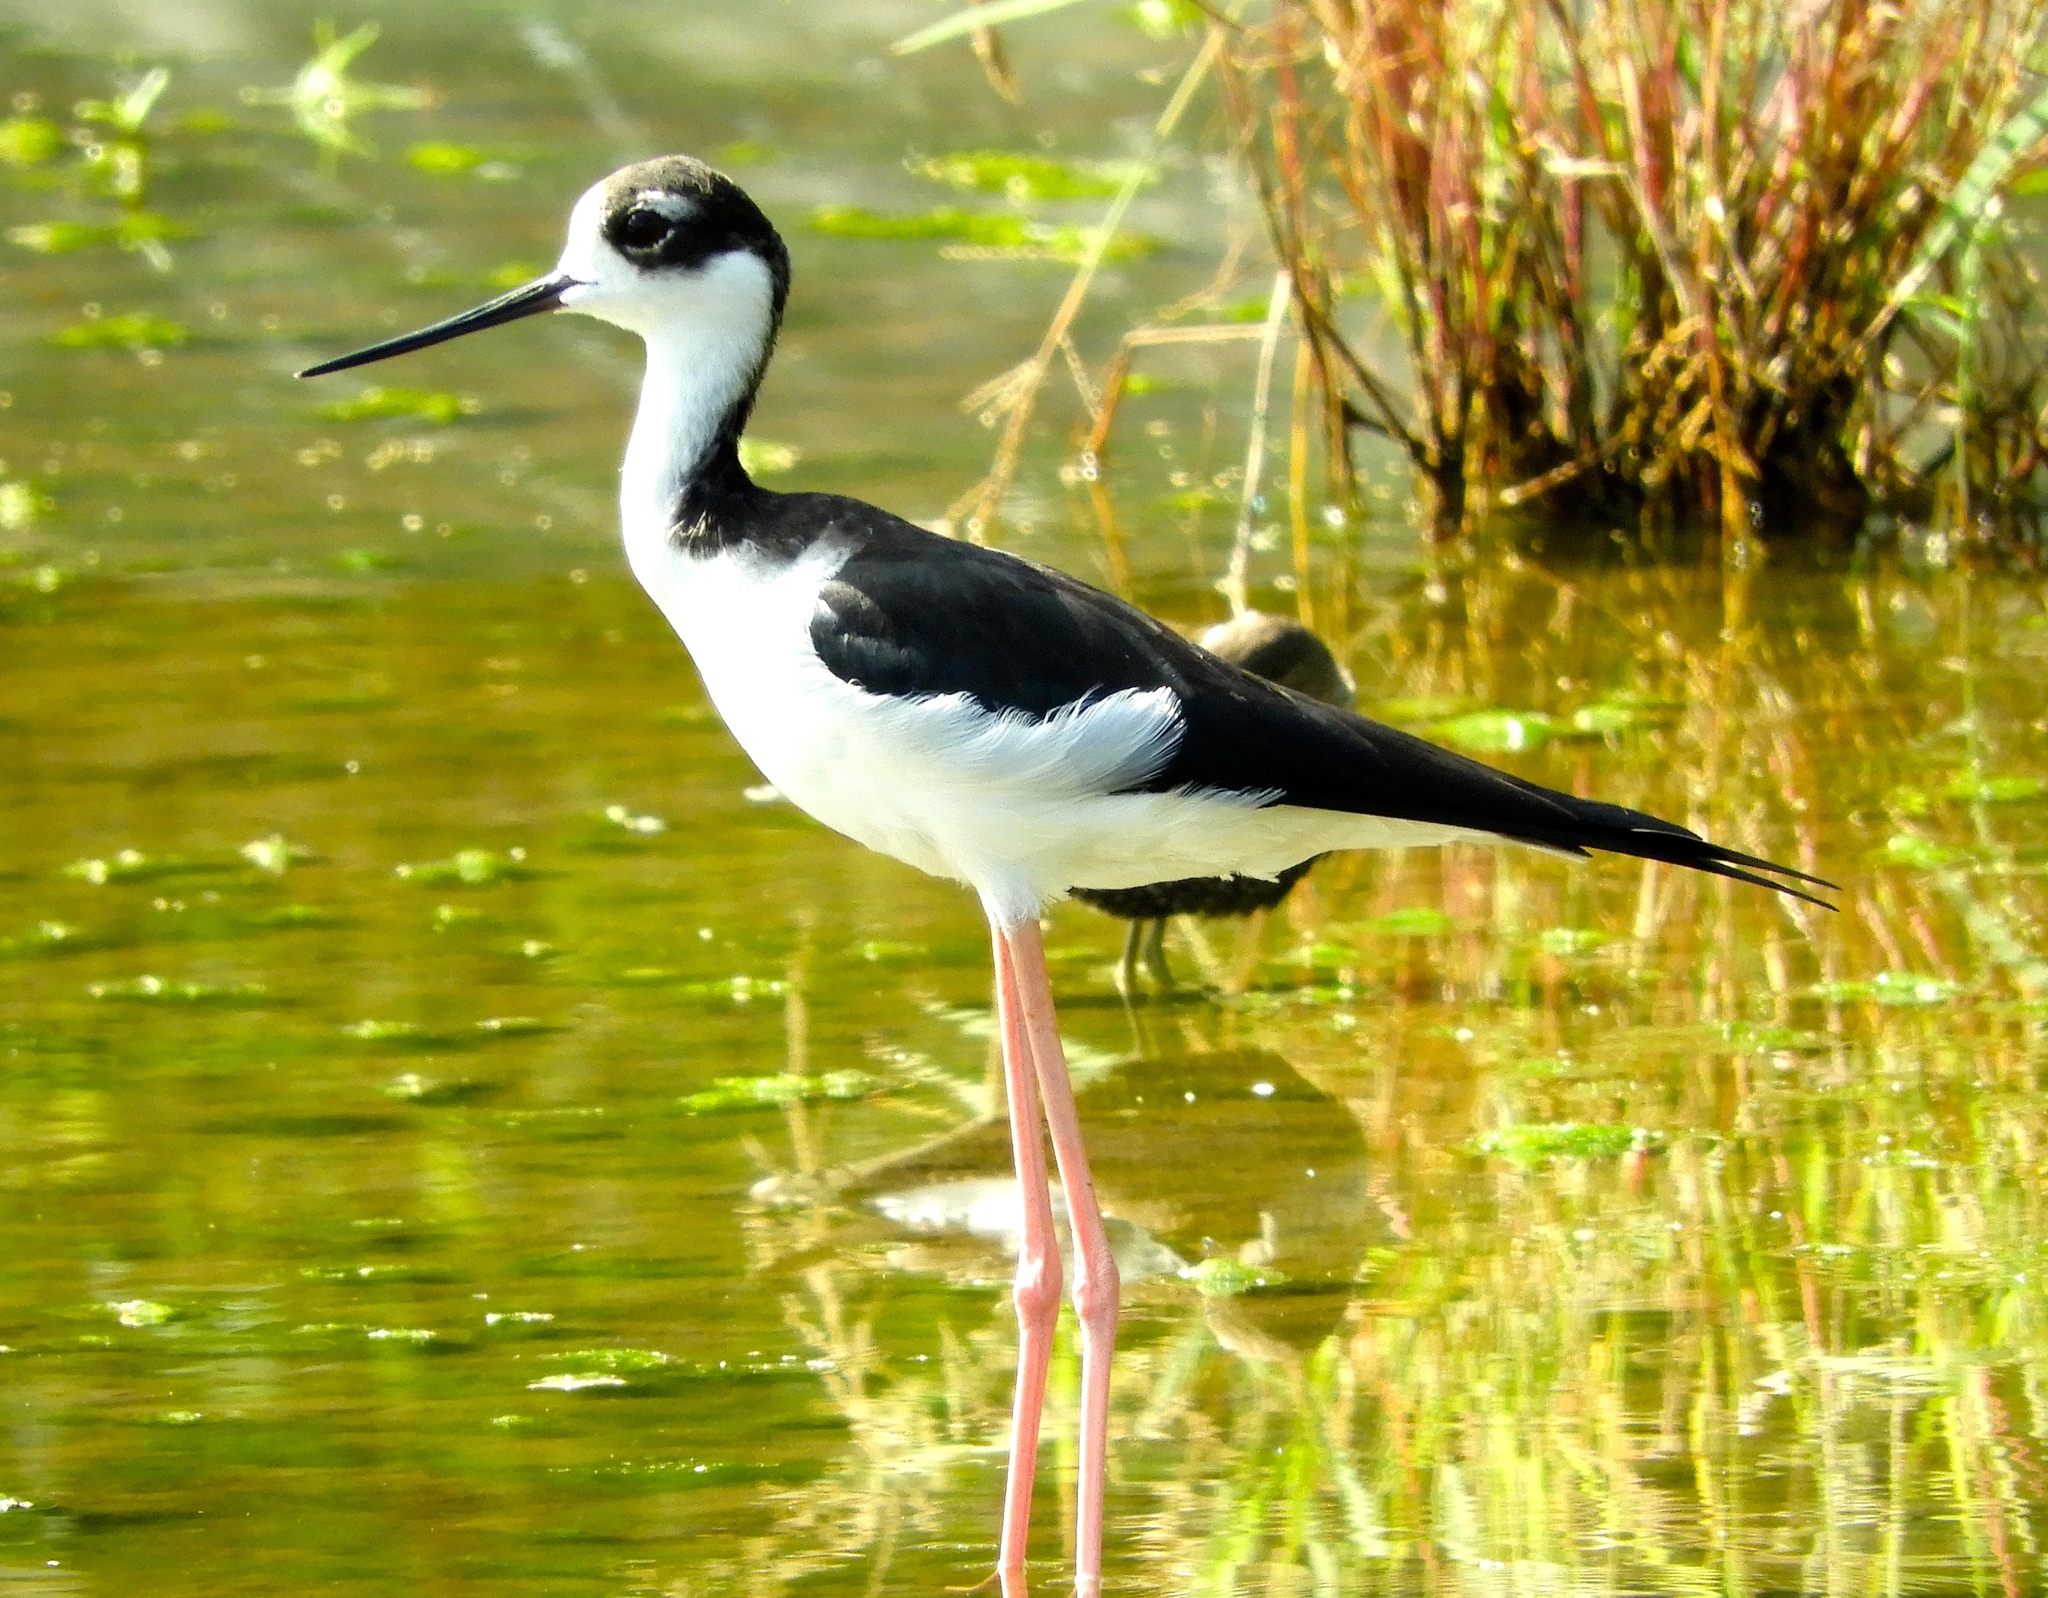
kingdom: Animalia
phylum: Chordata
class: Aves
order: Charadriiformes
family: Recurvirostridae
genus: Himantopus
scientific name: Himantopus mexicanus
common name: Black-necked stilt
